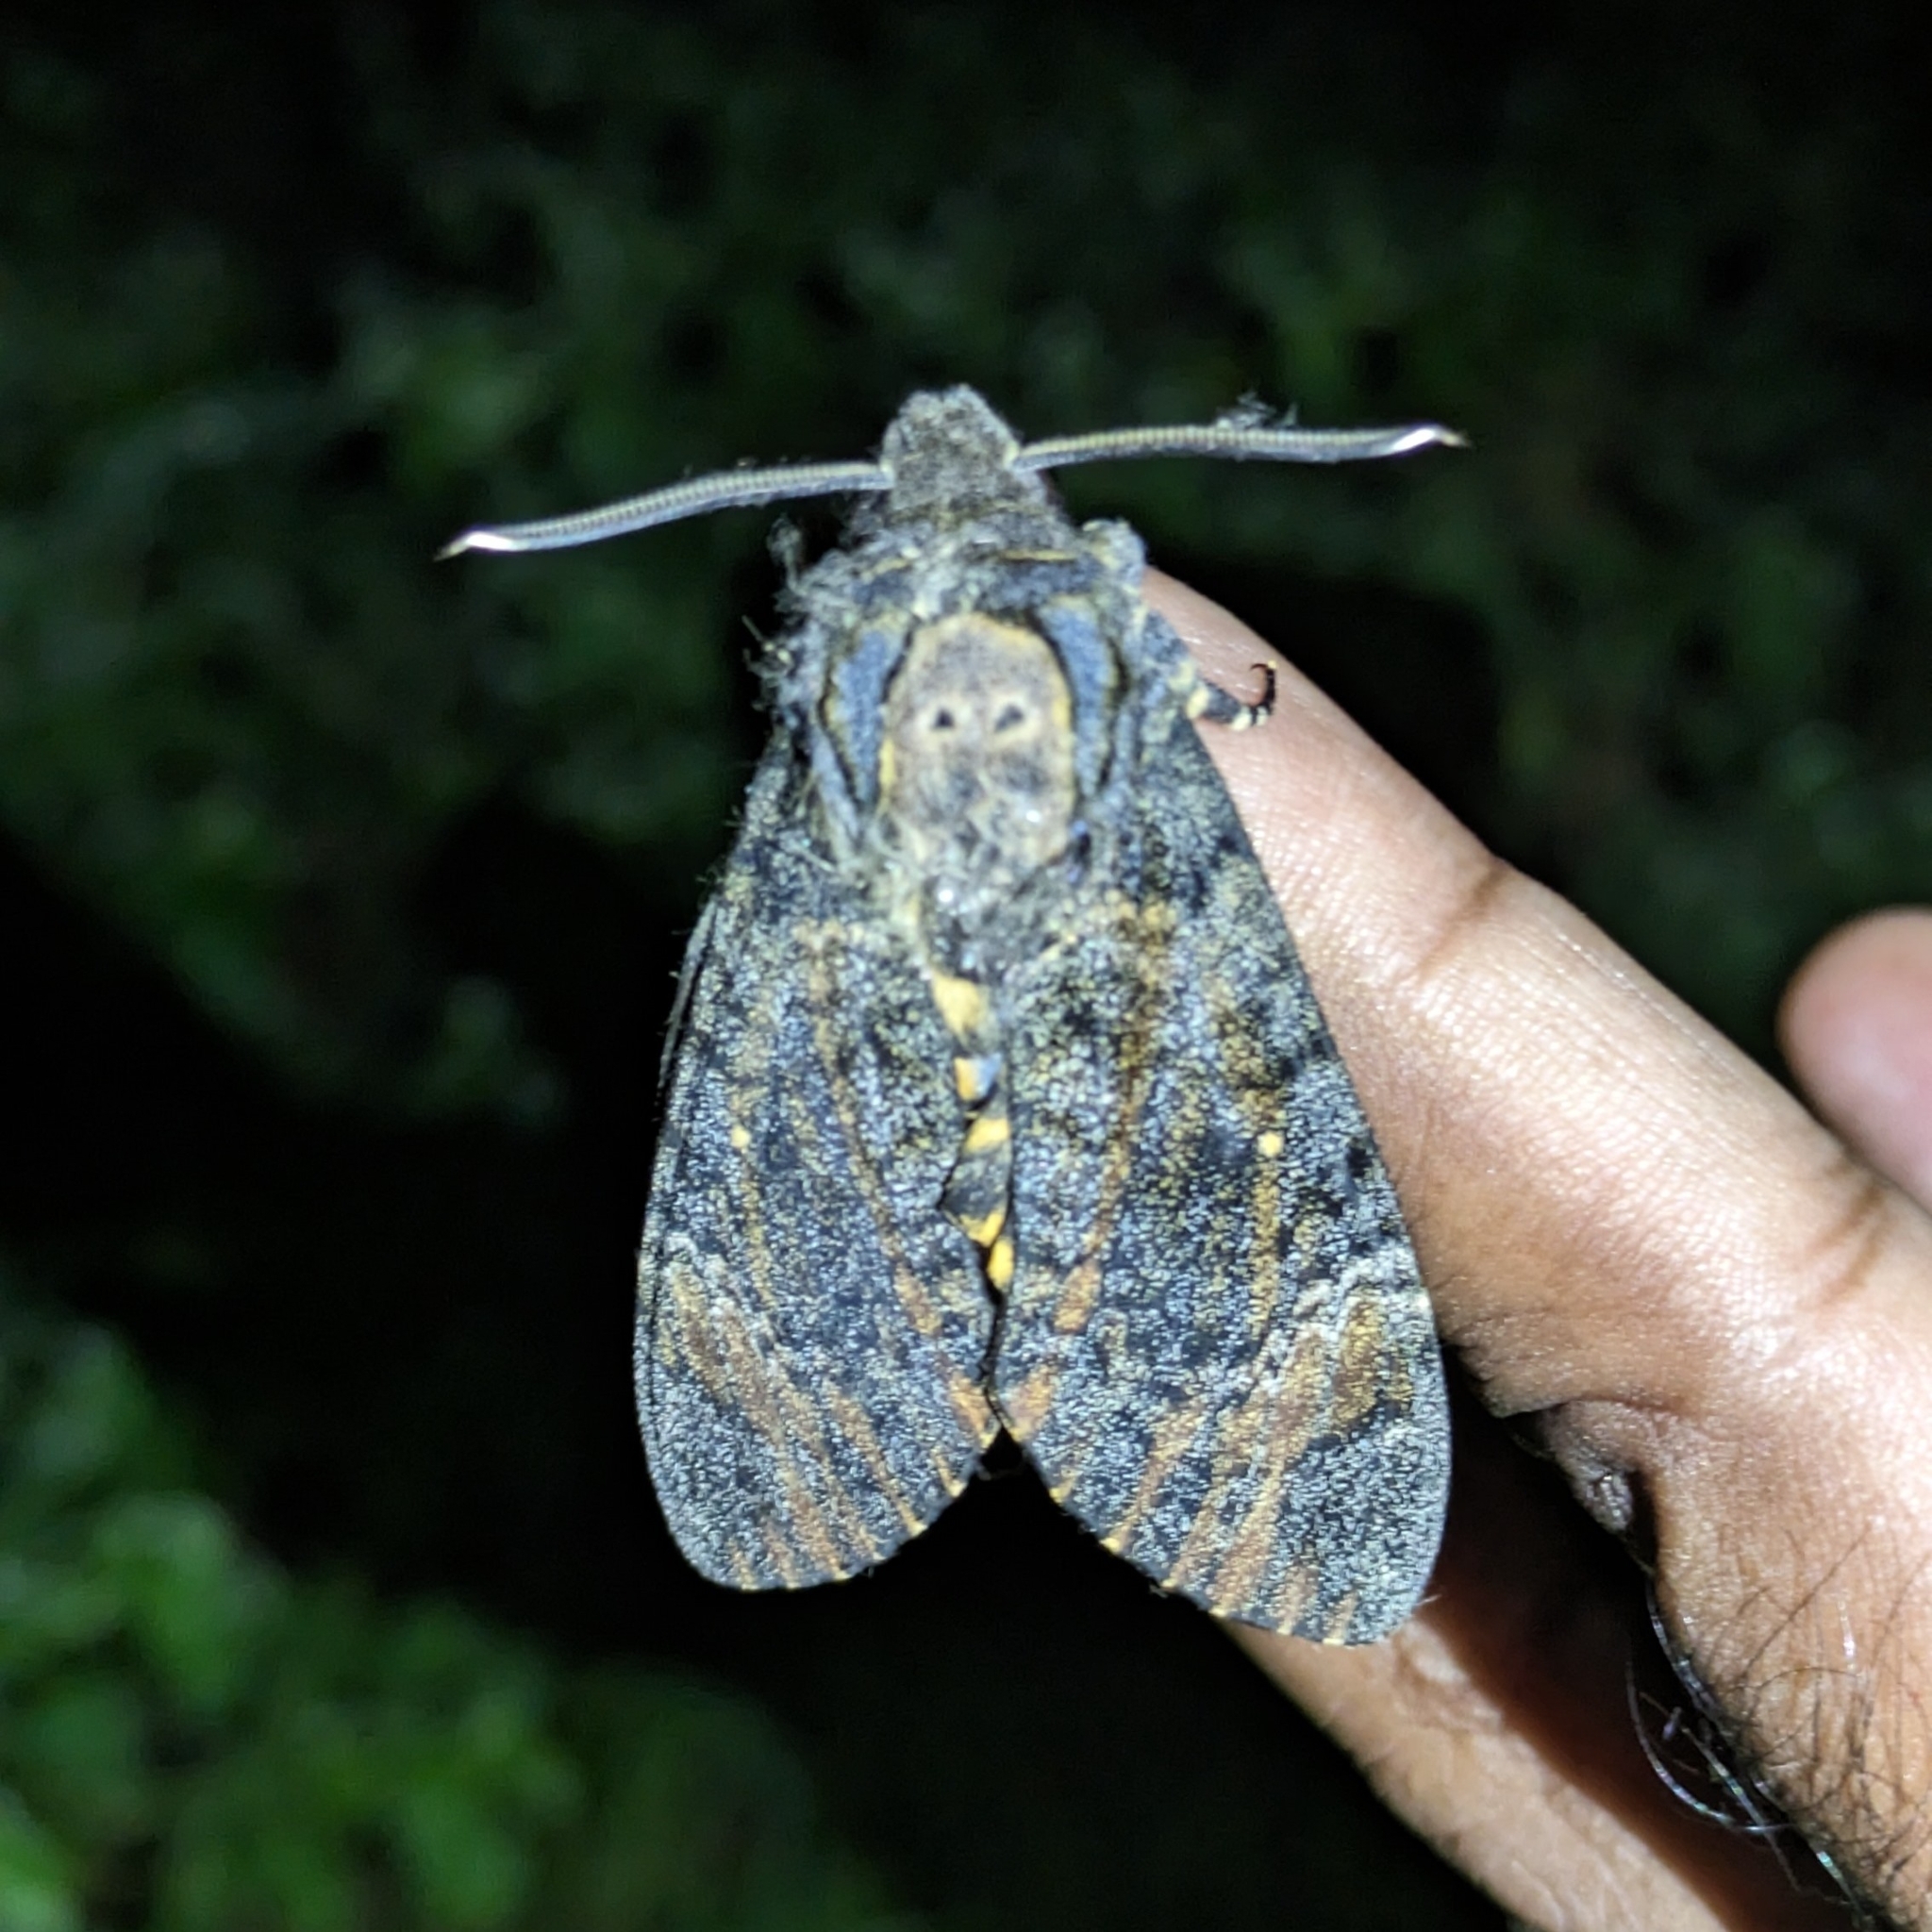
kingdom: Animalia
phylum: Arthropoda
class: Insecta
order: Lepidoptera
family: Sphingidae
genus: Acherontia
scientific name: Acherontia styx
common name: Death's-head hawk moth
